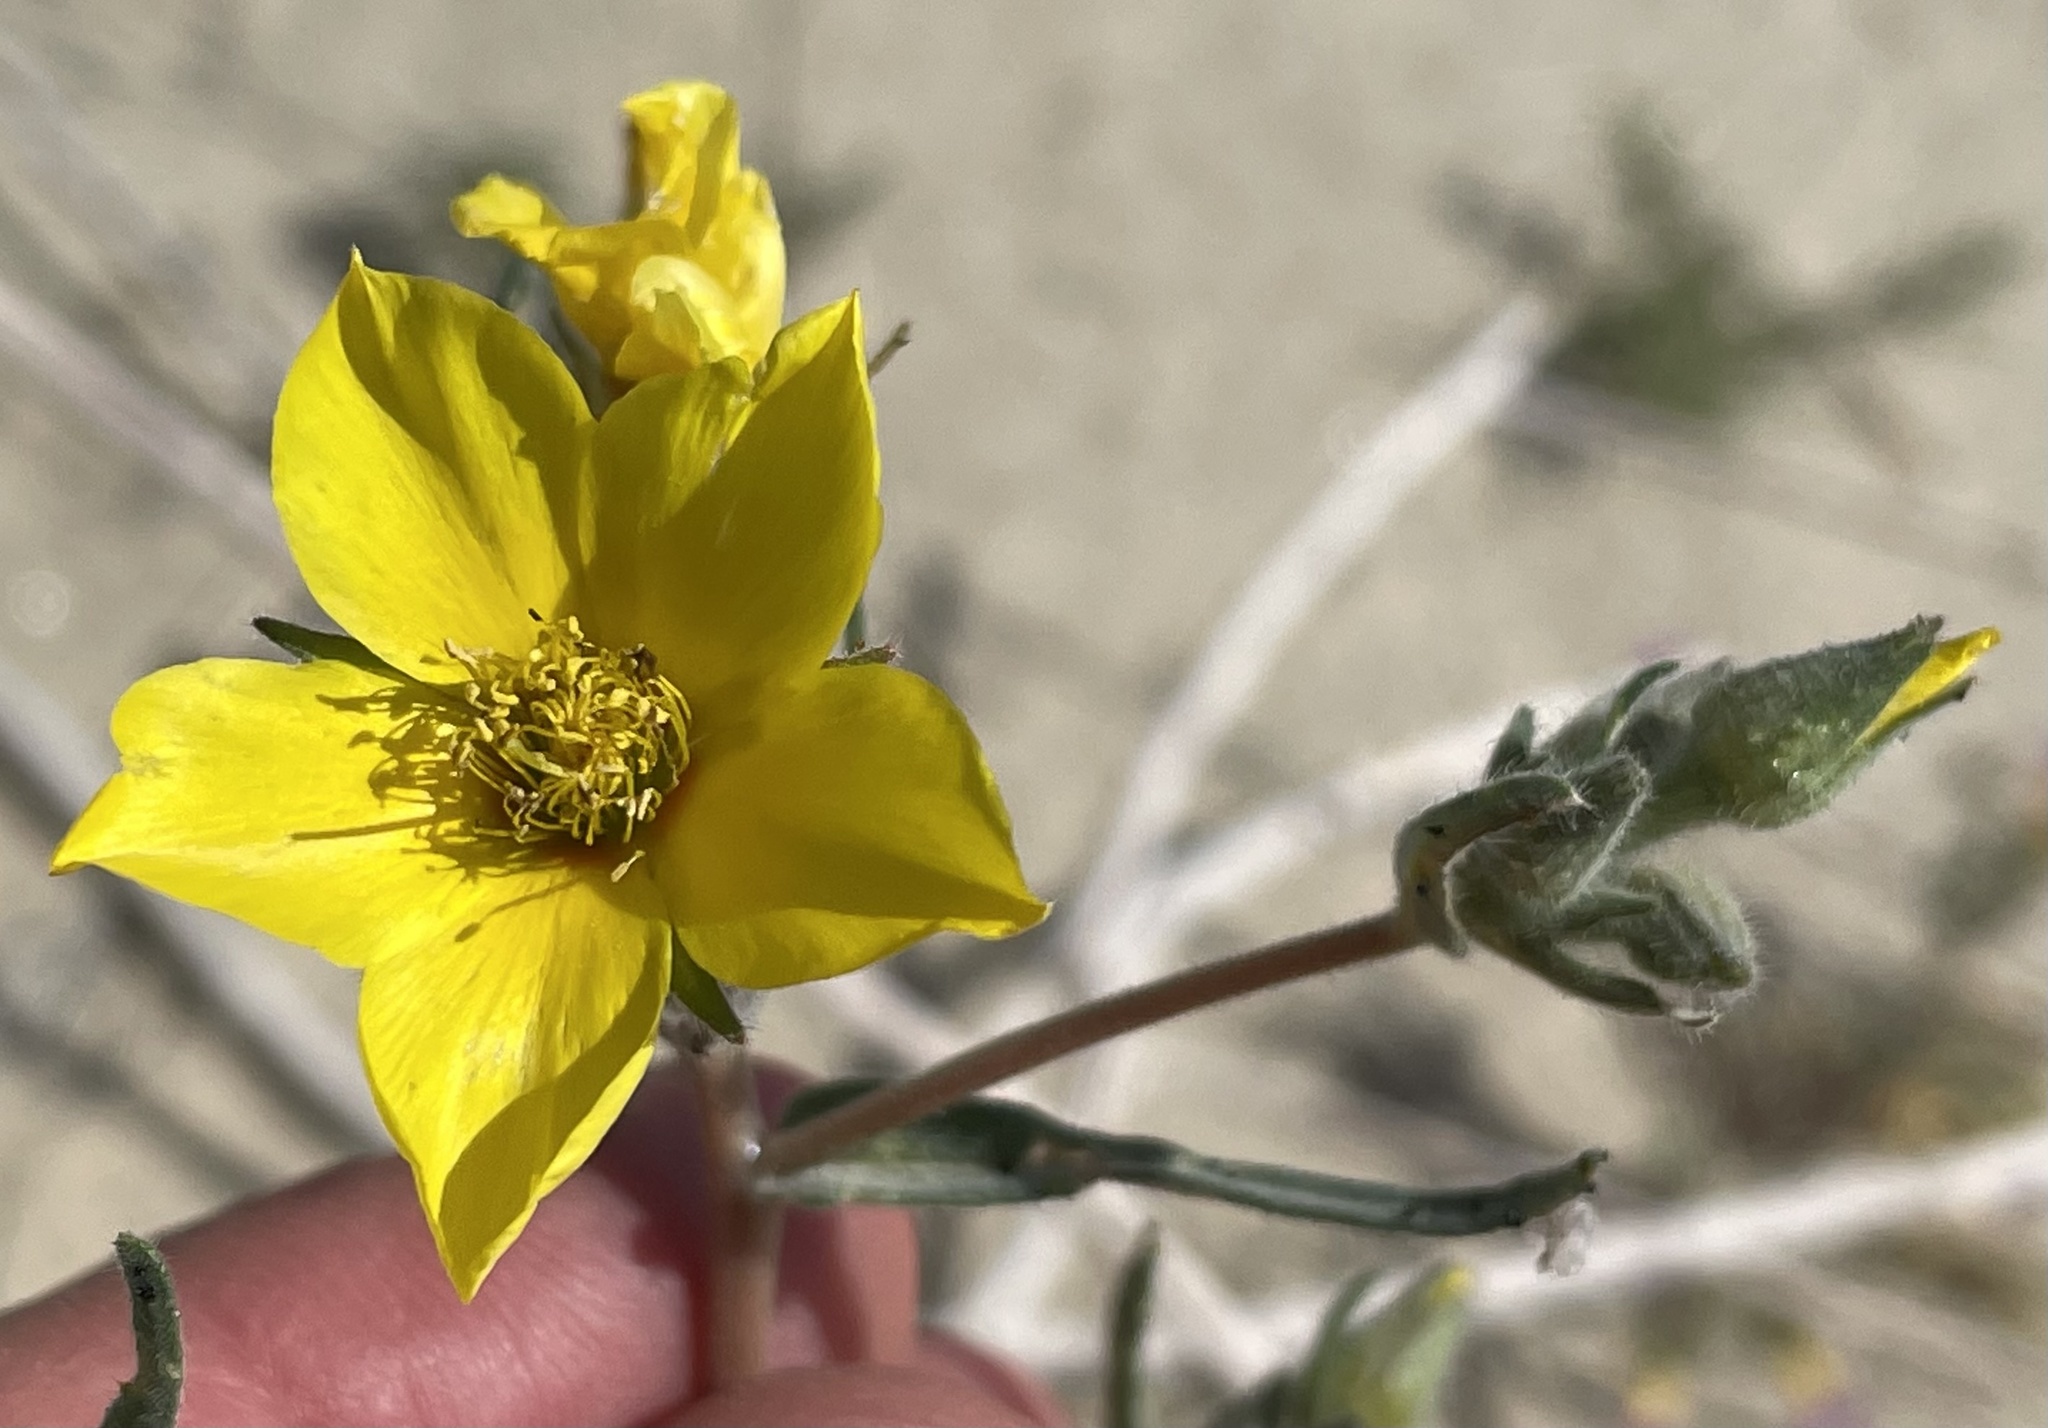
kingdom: Plantae
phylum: Tracheophyta
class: Magnoliopsida
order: Cornales
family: Loasaceae
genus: Mentzelia
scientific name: Mentzelia nitens
